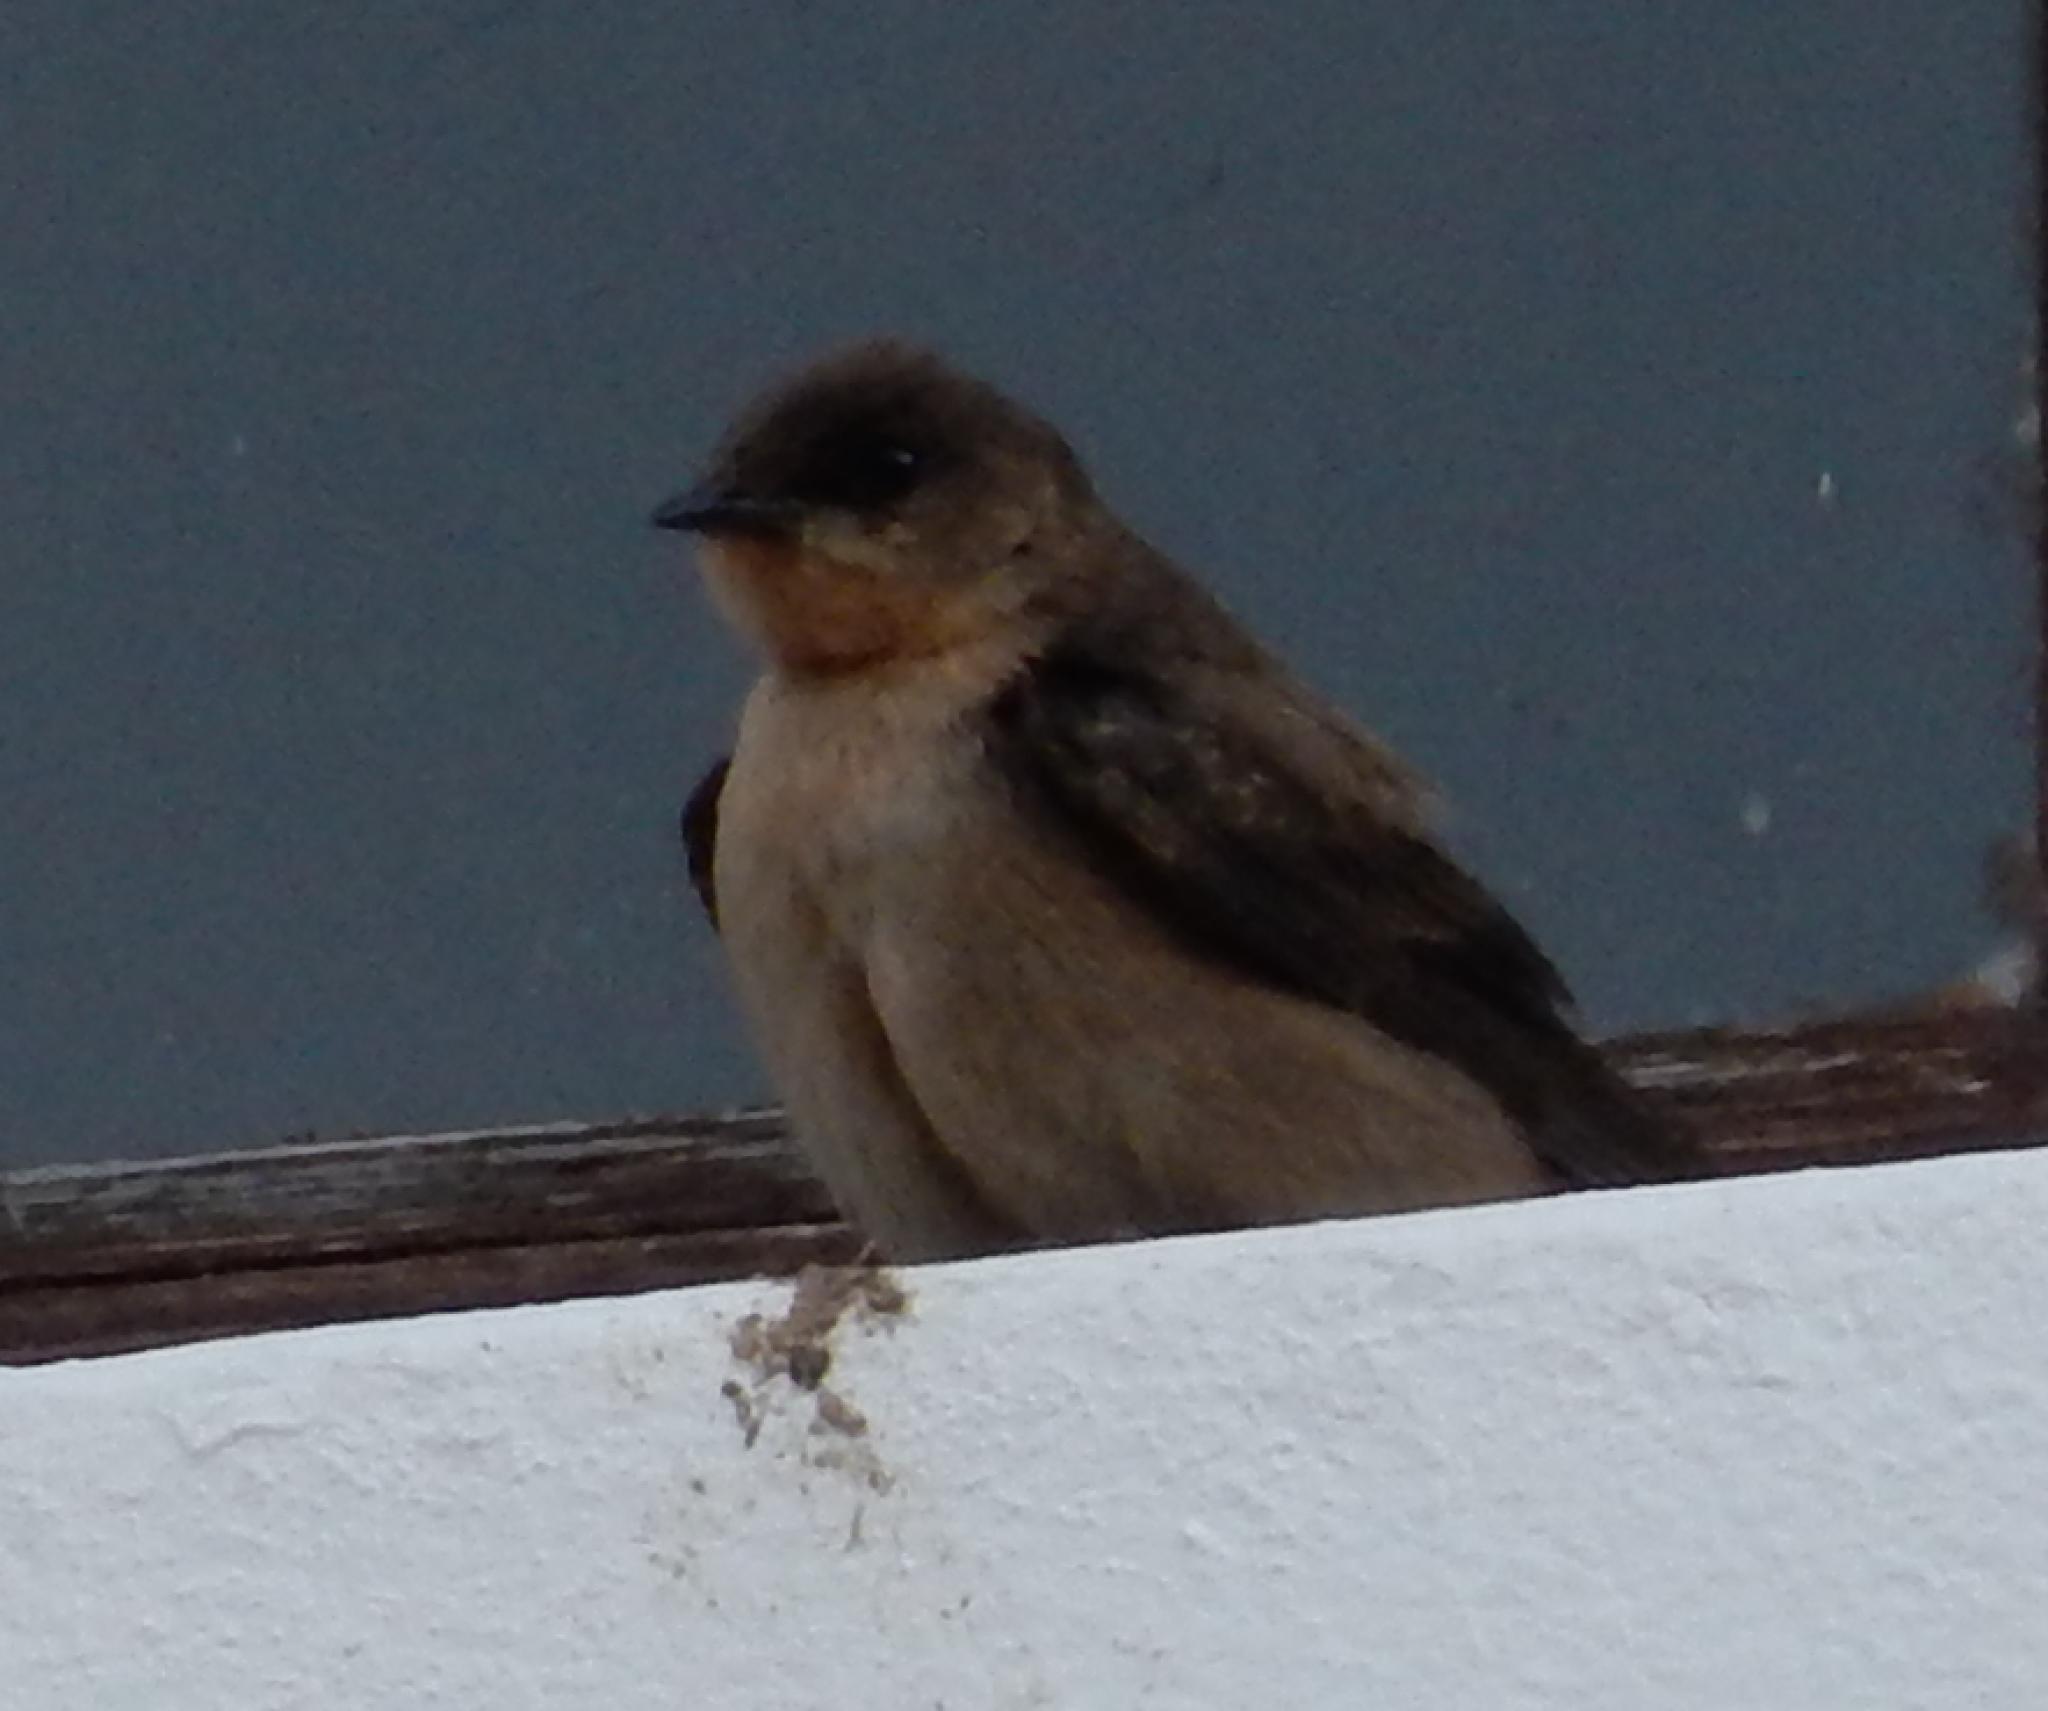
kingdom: Animalia
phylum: Chordata
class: Aves
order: Passeriformes
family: Hirundinidae
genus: Ptyonoprogne
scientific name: Ptyonoprogne fuligula
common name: Rock martin
